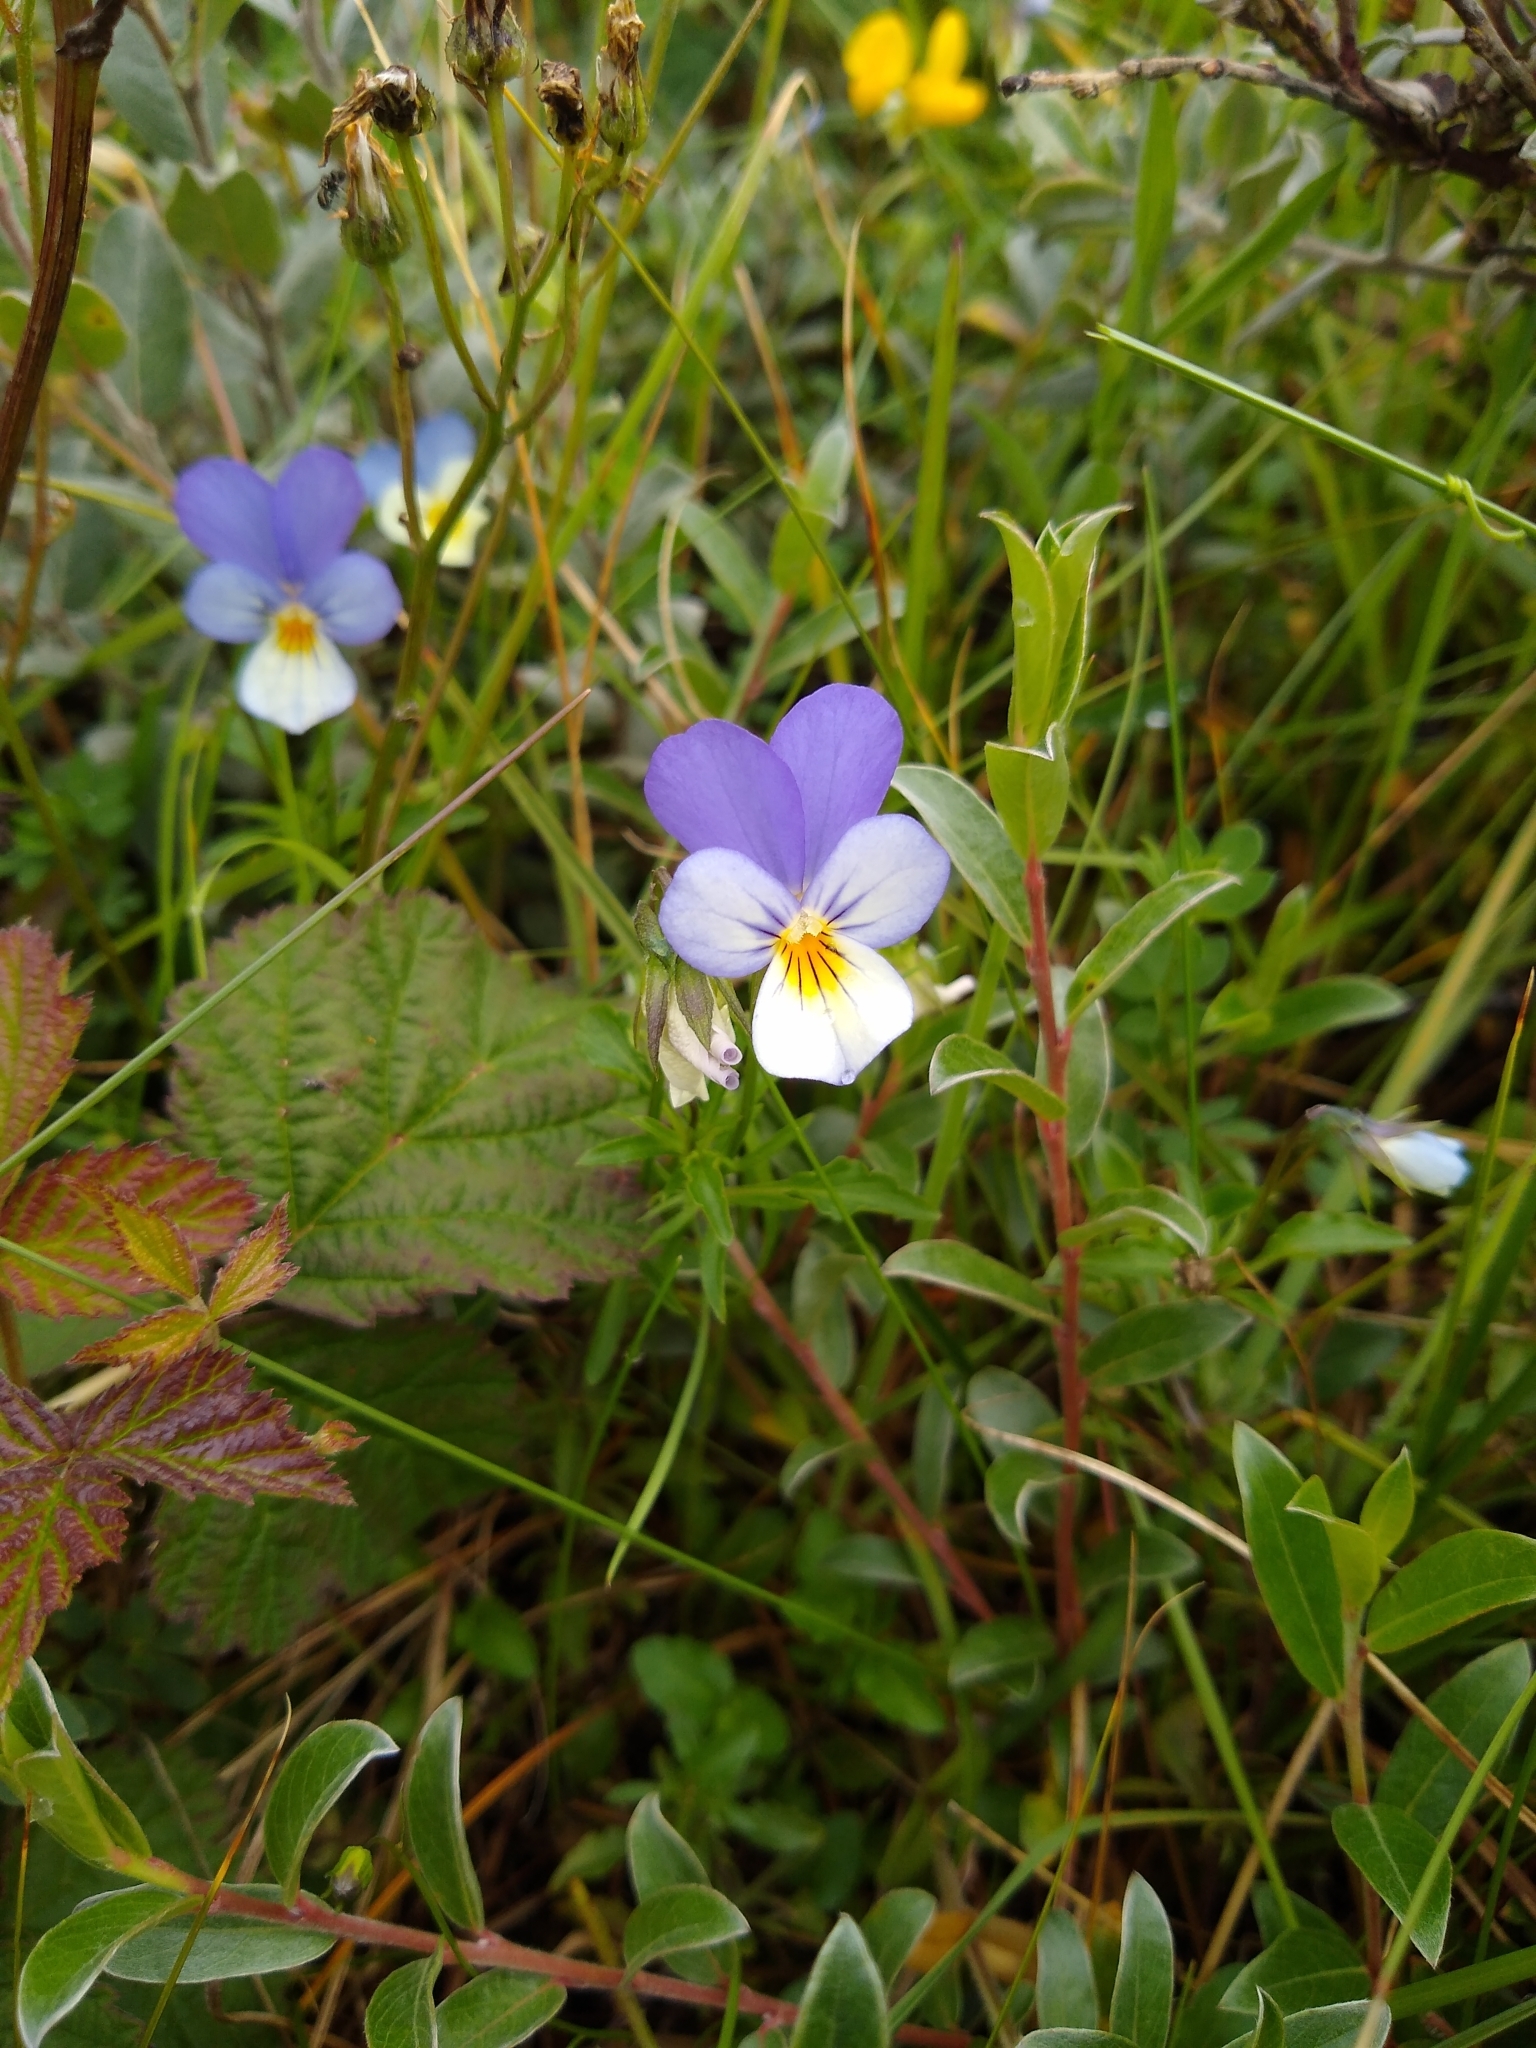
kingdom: Plantae
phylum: Tracheophyta
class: Magnoliopsida
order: Malpighiales
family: Violaceae
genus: Viola
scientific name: Viola tricolor
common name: Pansy
